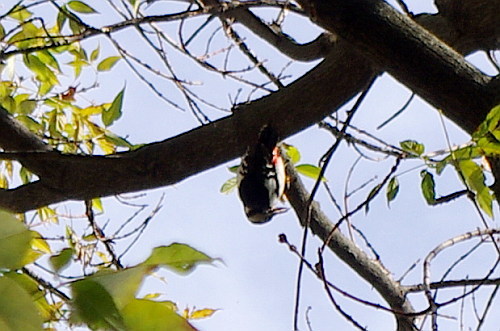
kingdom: Animalia
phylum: Chordata
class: Aves
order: Piciformes
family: Picidae
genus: Dendrocopos
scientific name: Dendrocopos major
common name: Great spotted woodpecker
